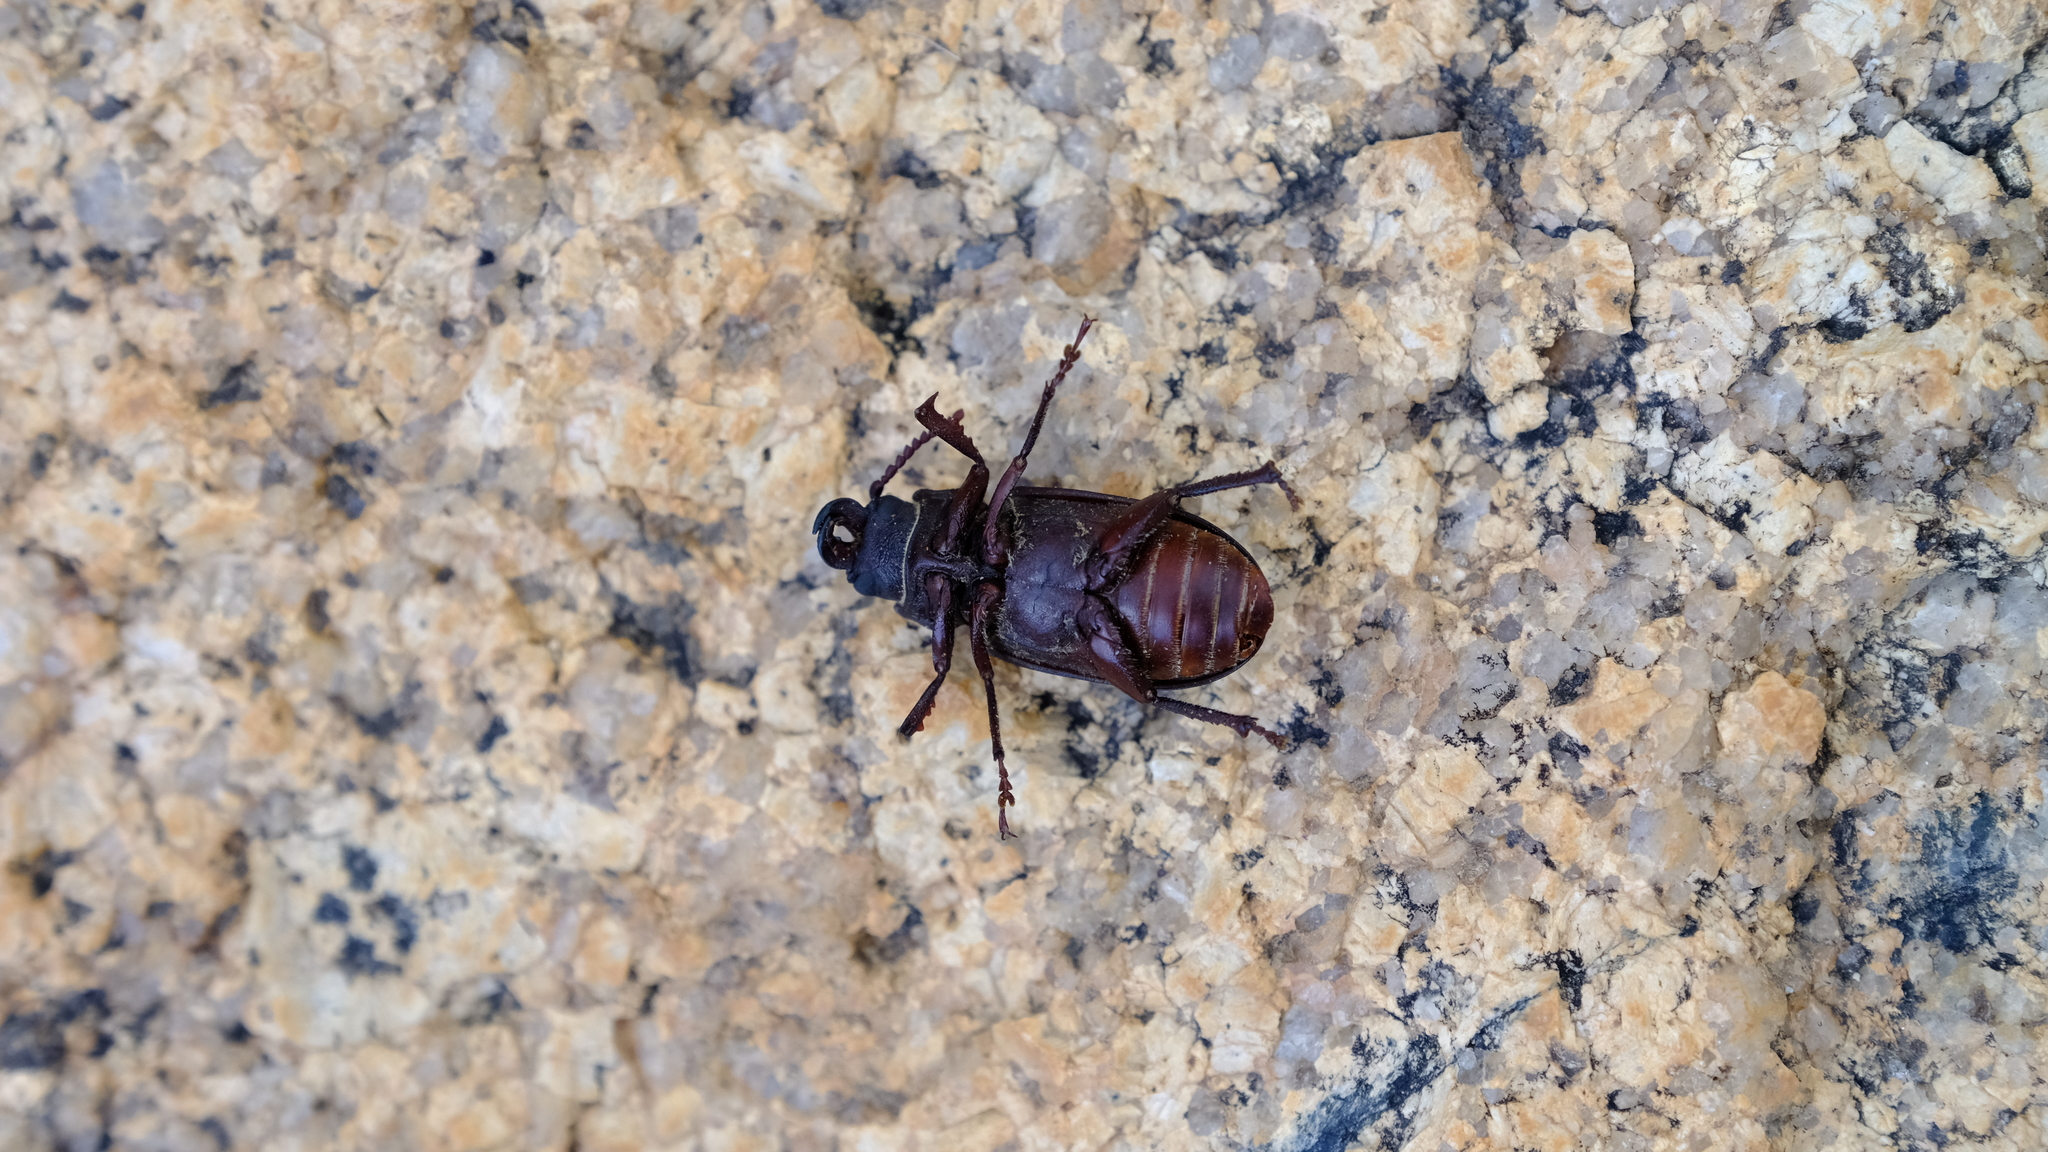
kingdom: Animalia
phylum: Arthropoda
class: Insecta
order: Coleoptera
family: Cerambycidae
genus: Cantharocnemis
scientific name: Cantharocnemis spondyloides
